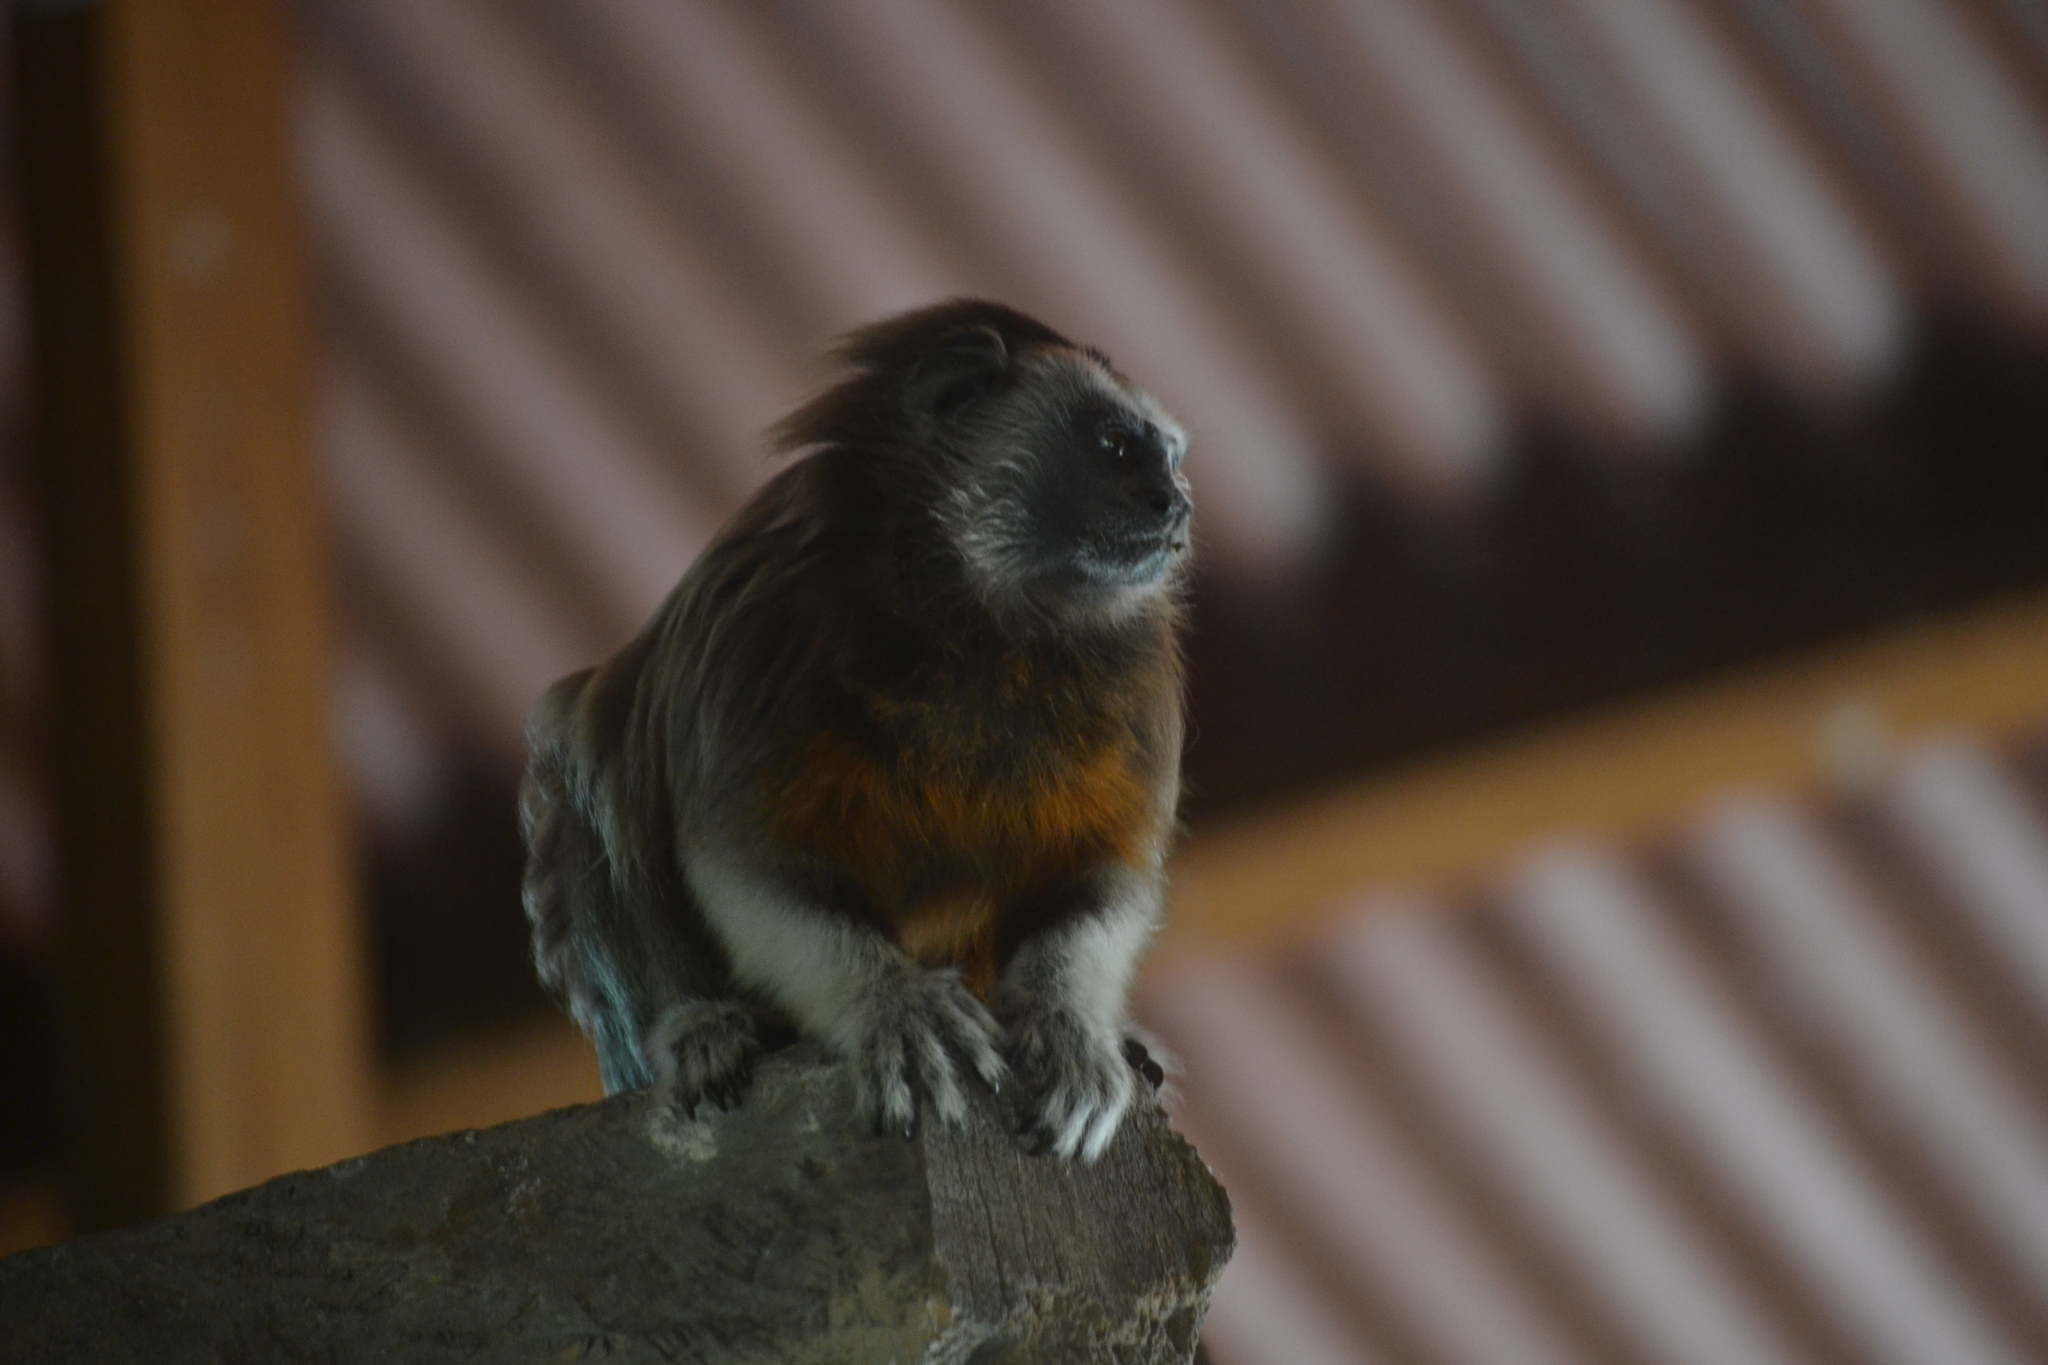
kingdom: Animalia
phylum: Chordata
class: Mammalia
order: Primates
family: Callitrichidae
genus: Saguinus
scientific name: Saguinus leucopus
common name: White-footed tamarin
